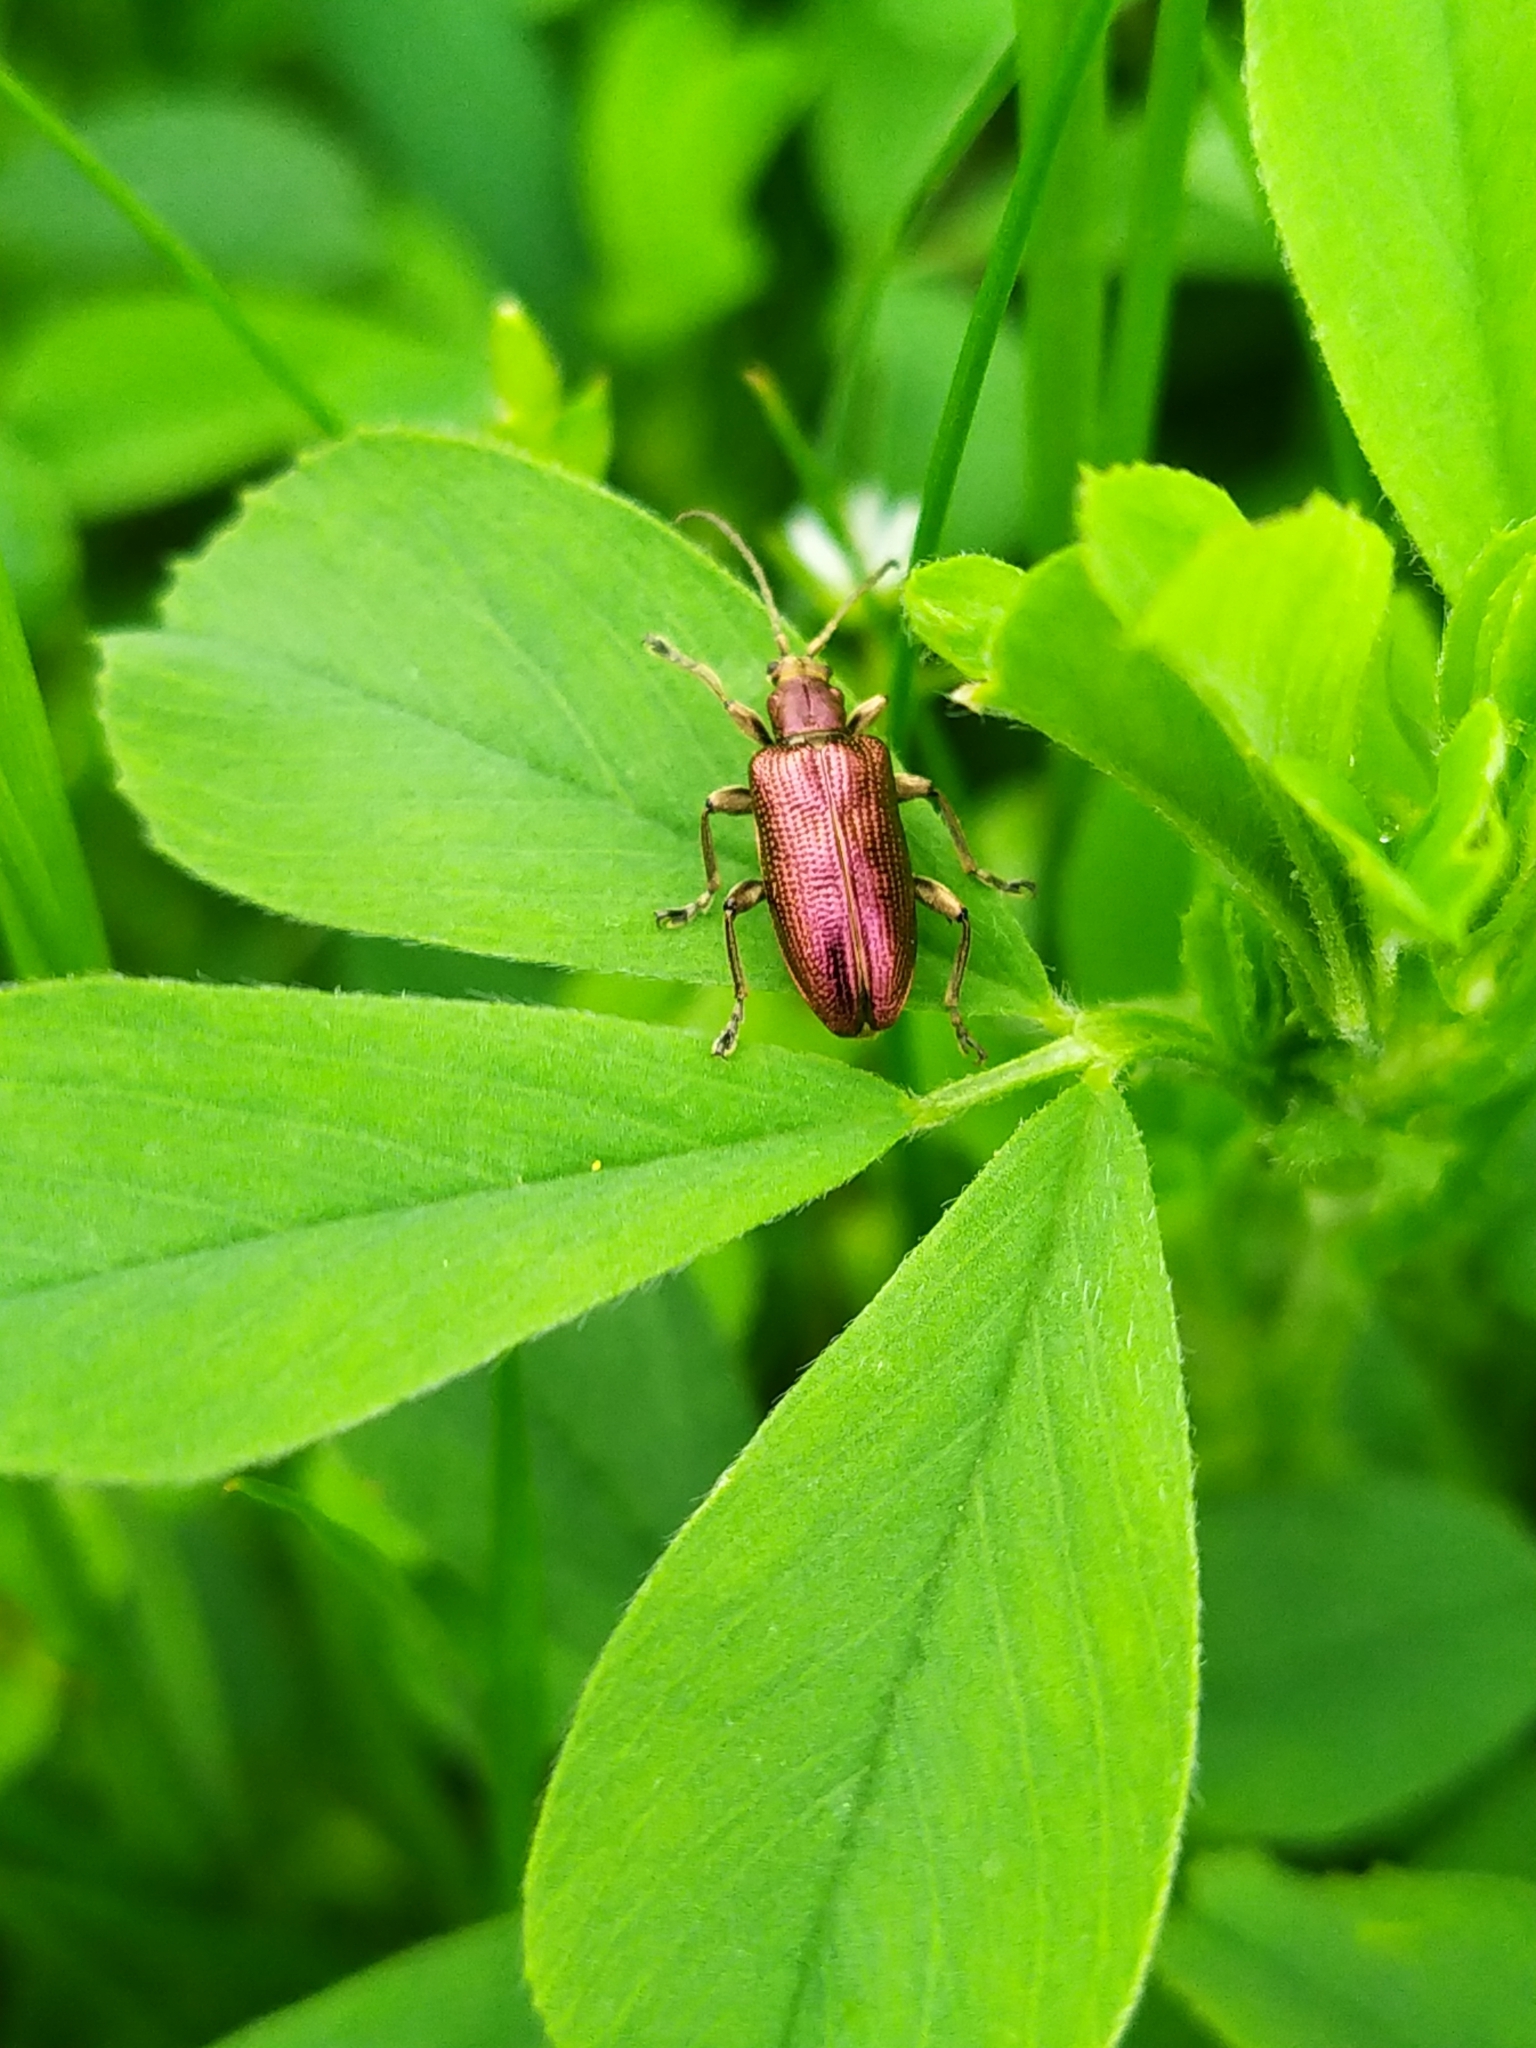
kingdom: Animalia
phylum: Arthropoda
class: Insecta
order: Coleoptera
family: Chrysomelidae
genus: Plateumaris
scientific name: Plateumaris sericea
